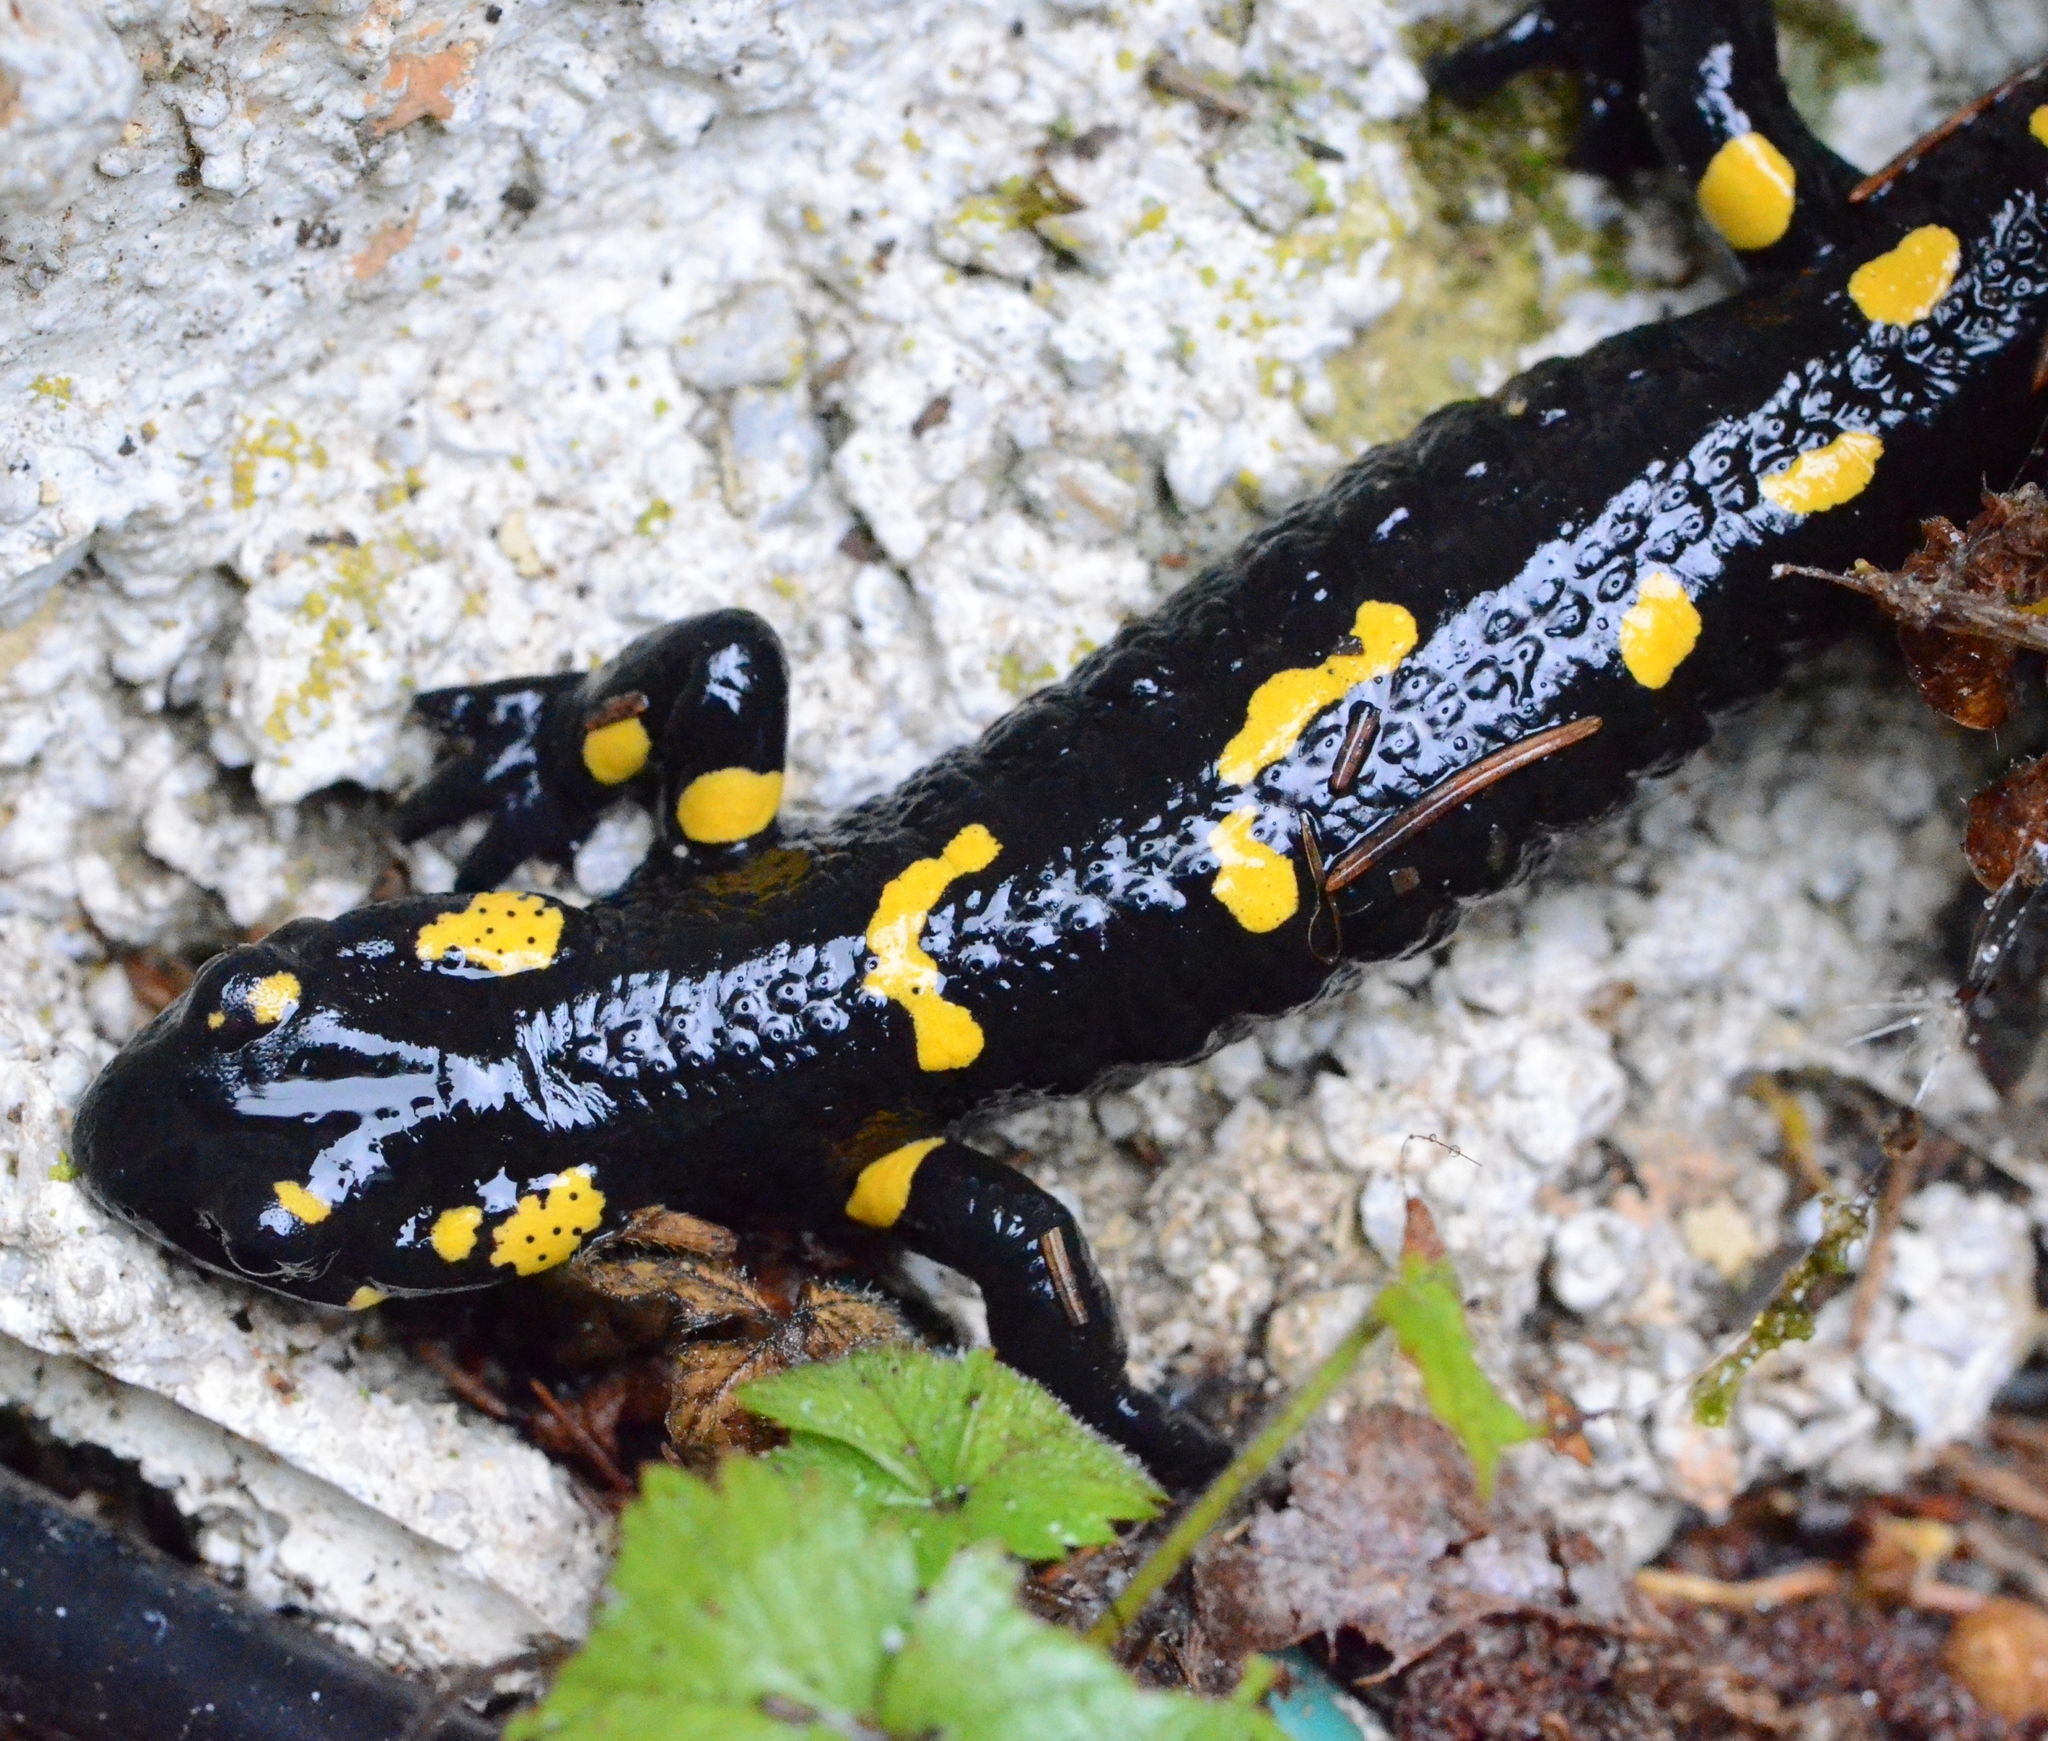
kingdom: Animalia
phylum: Chordata
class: Amphibia
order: Caudata
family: Salamandridae
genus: Salamandra
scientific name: Salamandra salamandra
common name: Fire salamander
